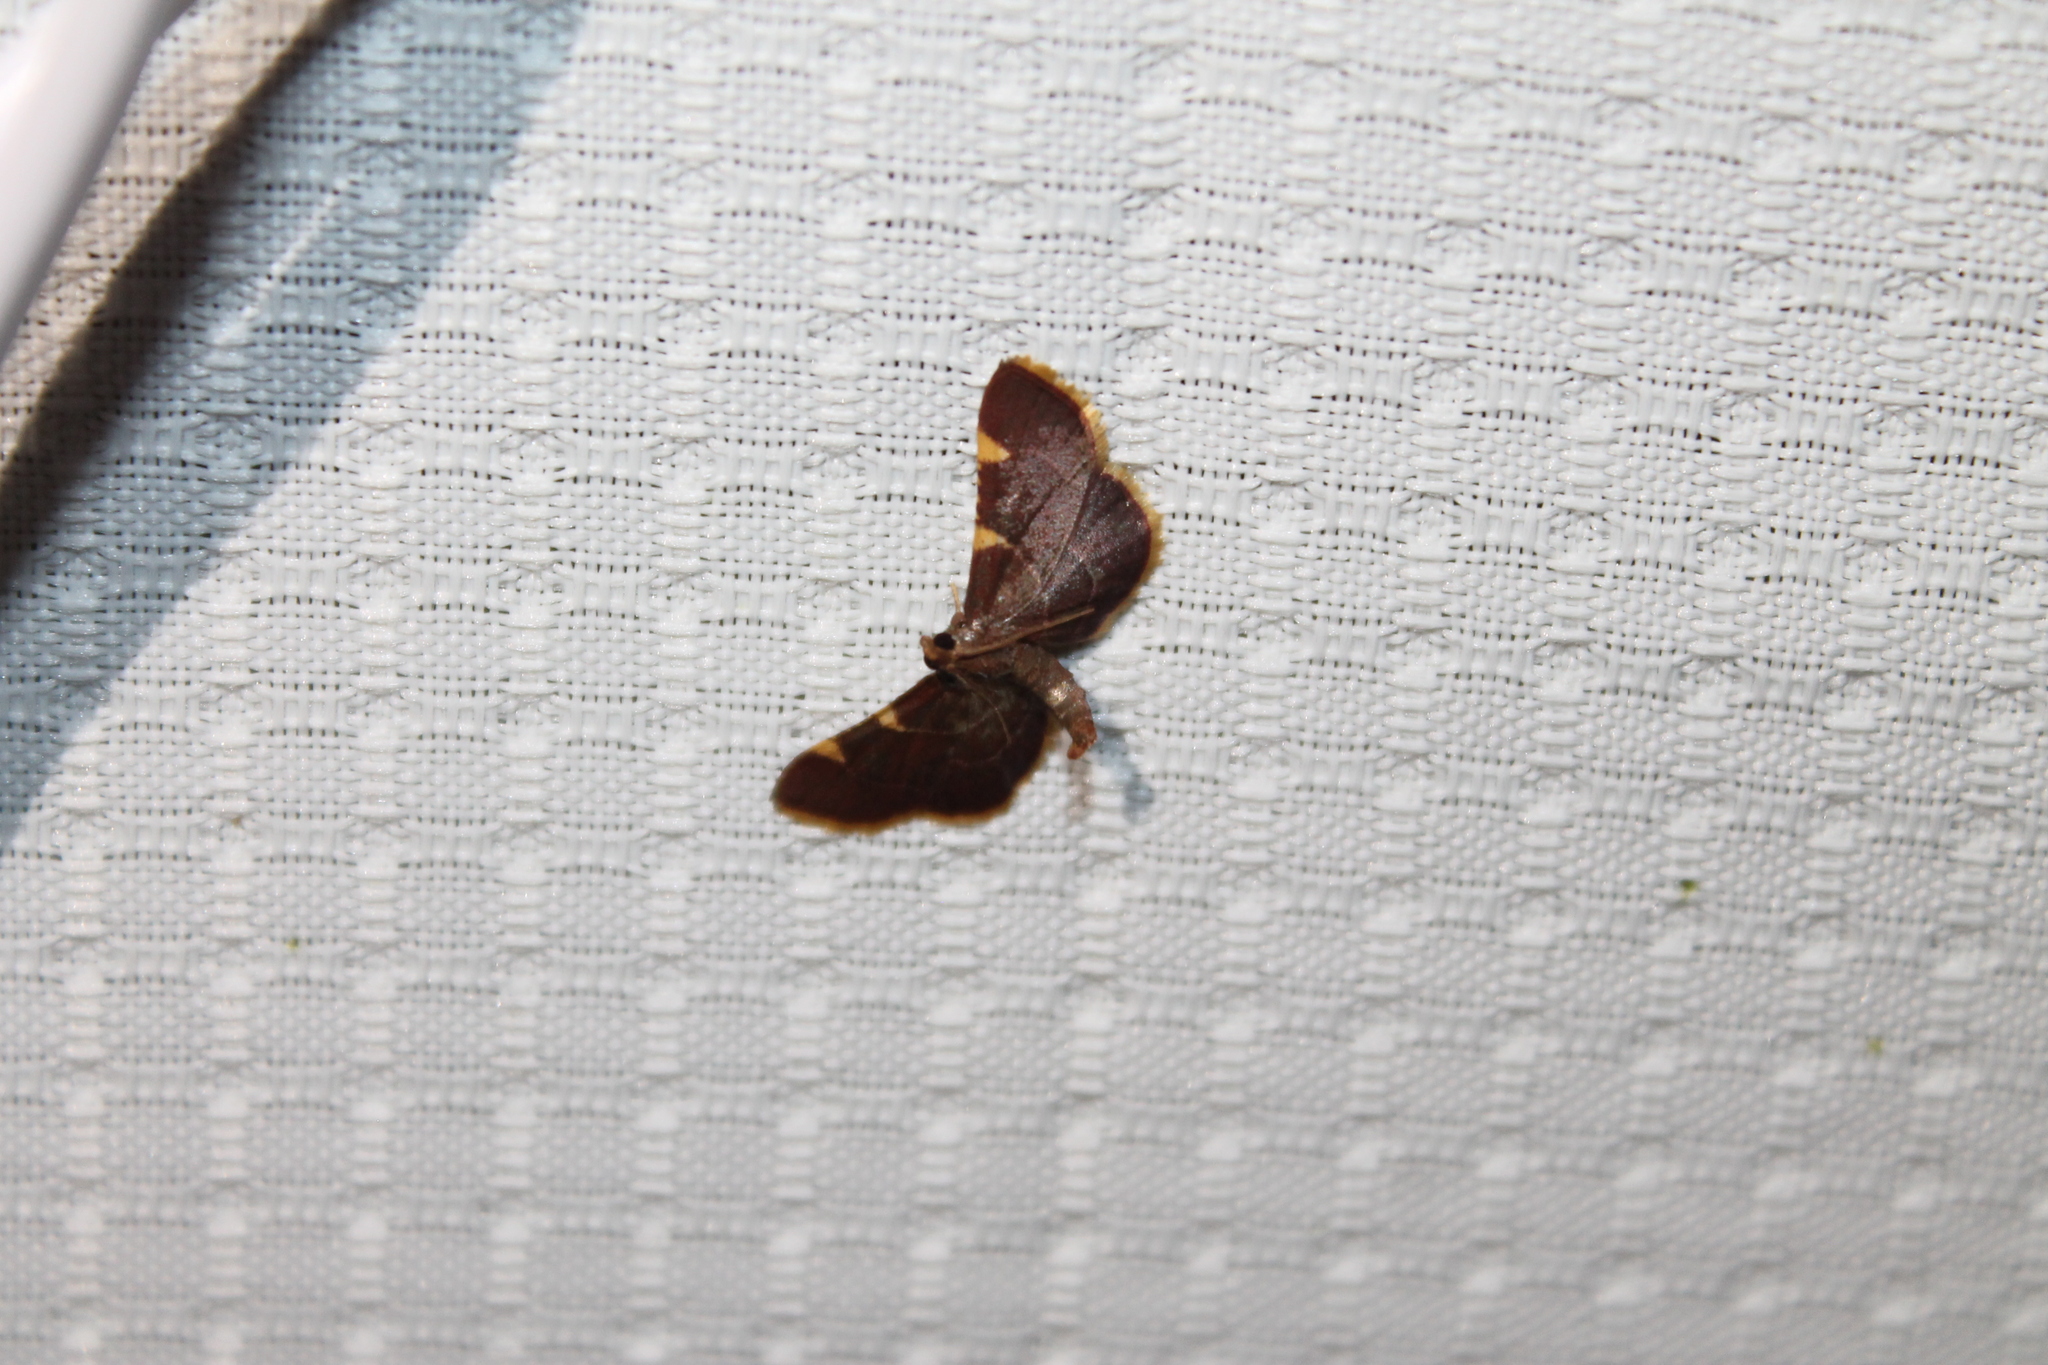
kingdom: Animalia
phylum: Arthropoda
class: Insecta
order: Lepidoptera
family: Pyralidae
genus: Hypsopygia
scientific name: Hypsopygia olinalis
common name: Yellow-fringed dolichomia moth
